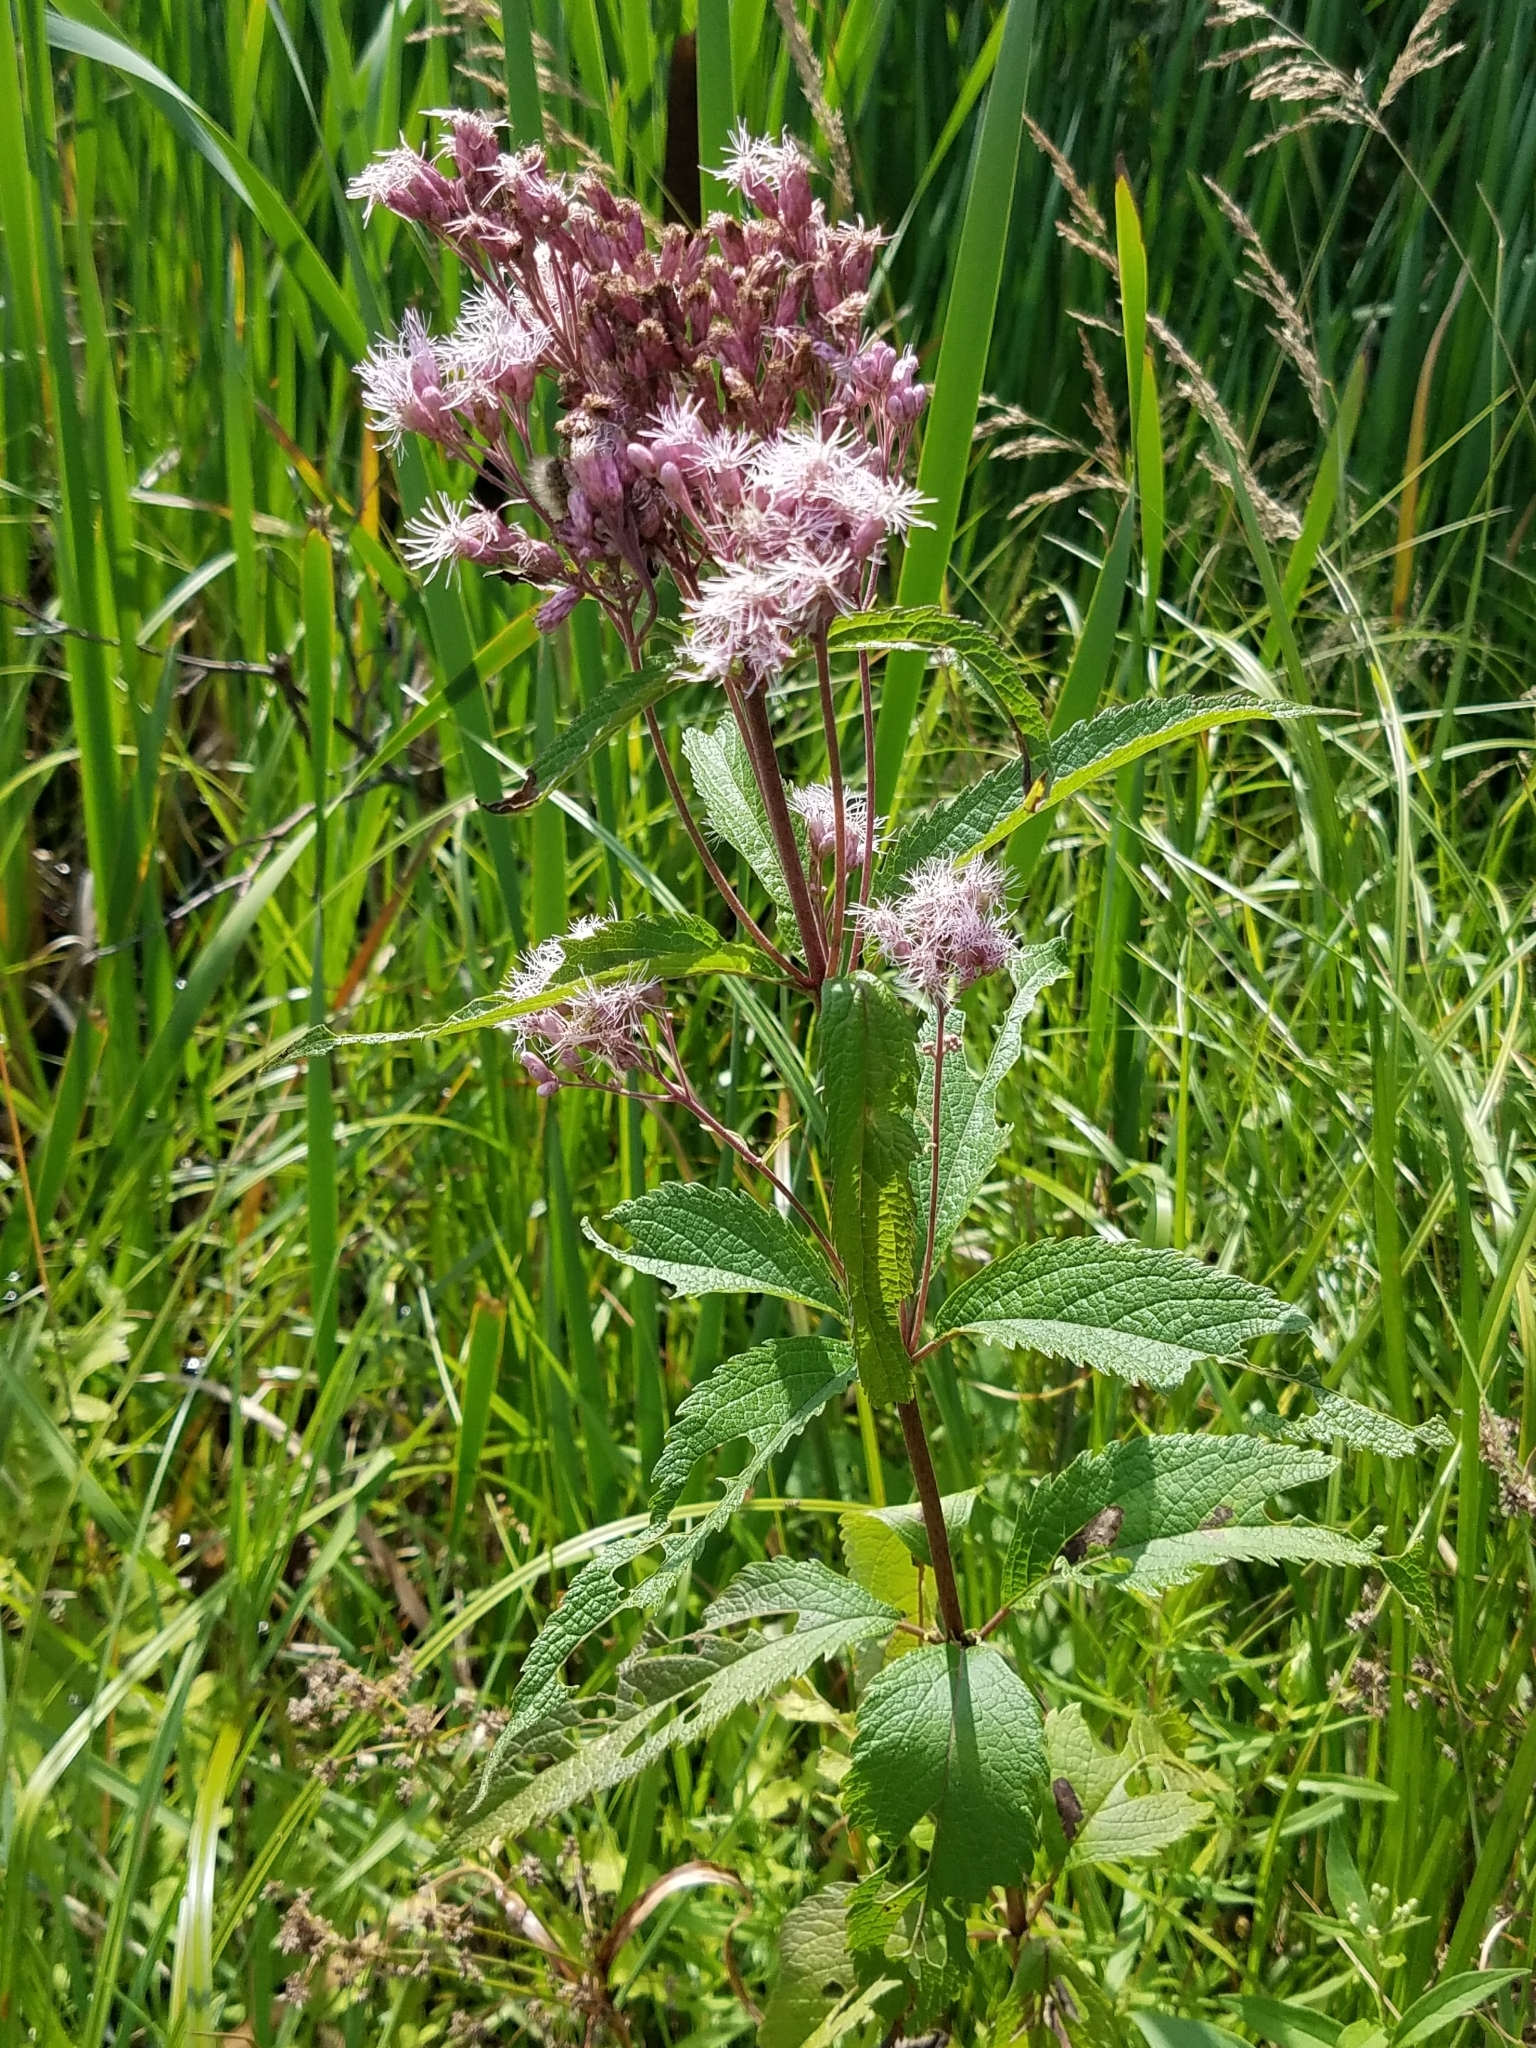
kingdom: Plantae
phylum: Tracheophyta
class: Magnoliopsida
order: Asterales
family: Asteraceae
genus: Eutrochium
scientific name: Eutrochium maculatum
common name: Spotted joe pye weed
